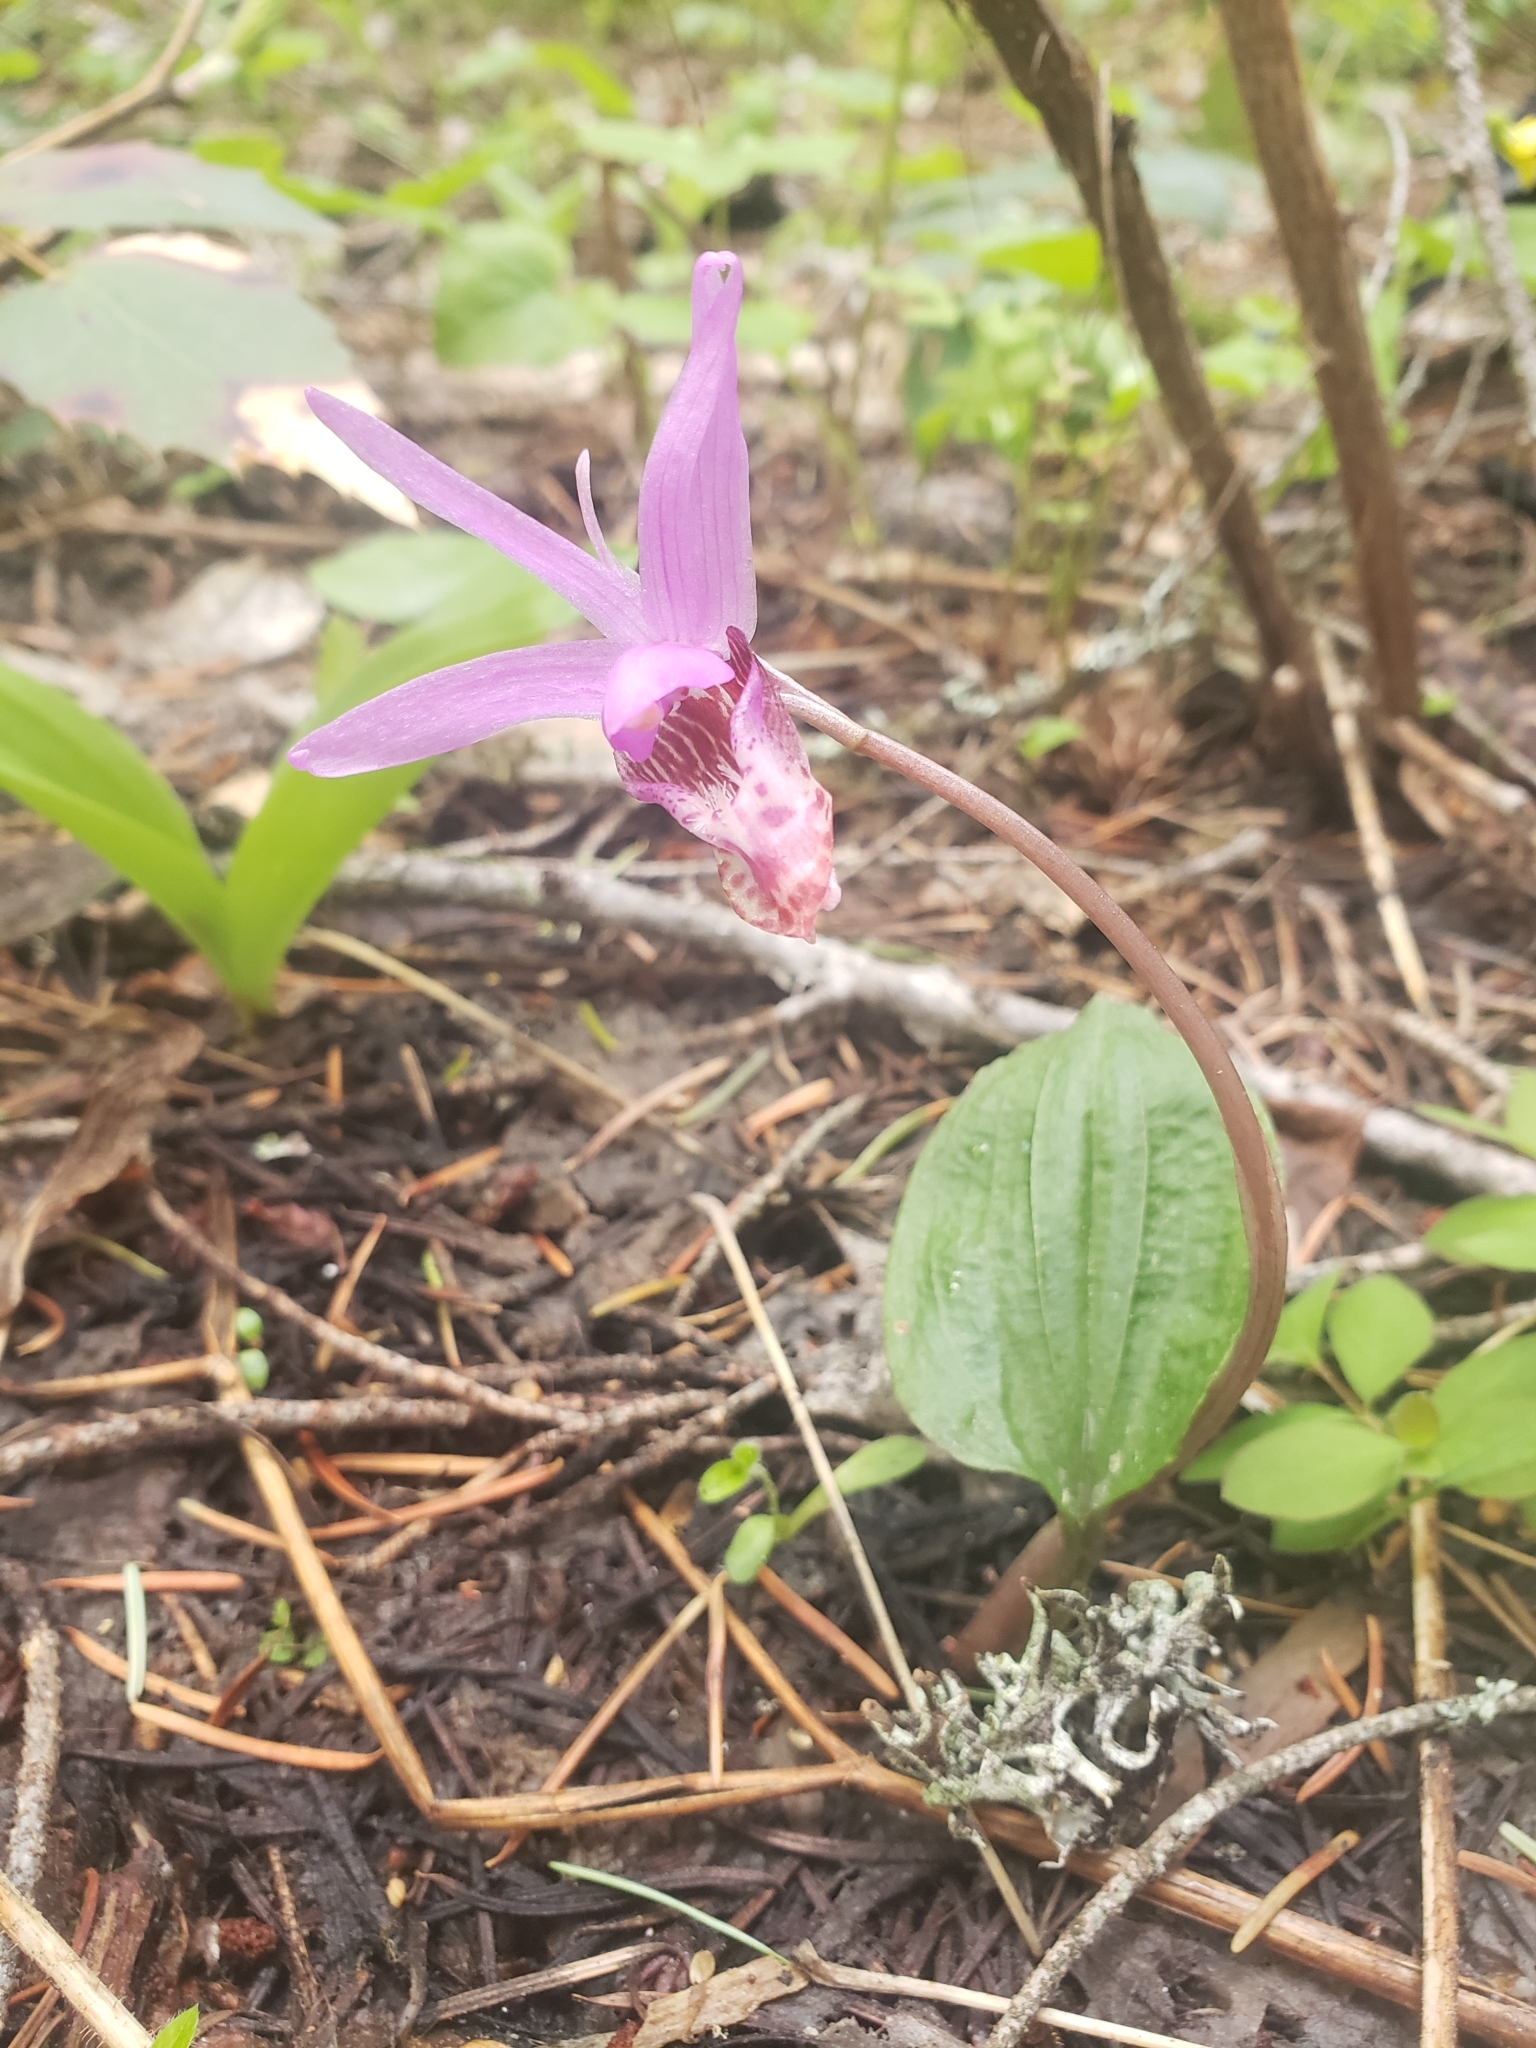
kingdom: Plantae
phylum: Tracheophyta
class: Liliopsida
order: Asparagales
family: Orchidaceae
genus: Calypso
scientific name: Calypso bulbosa
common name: Calypso
